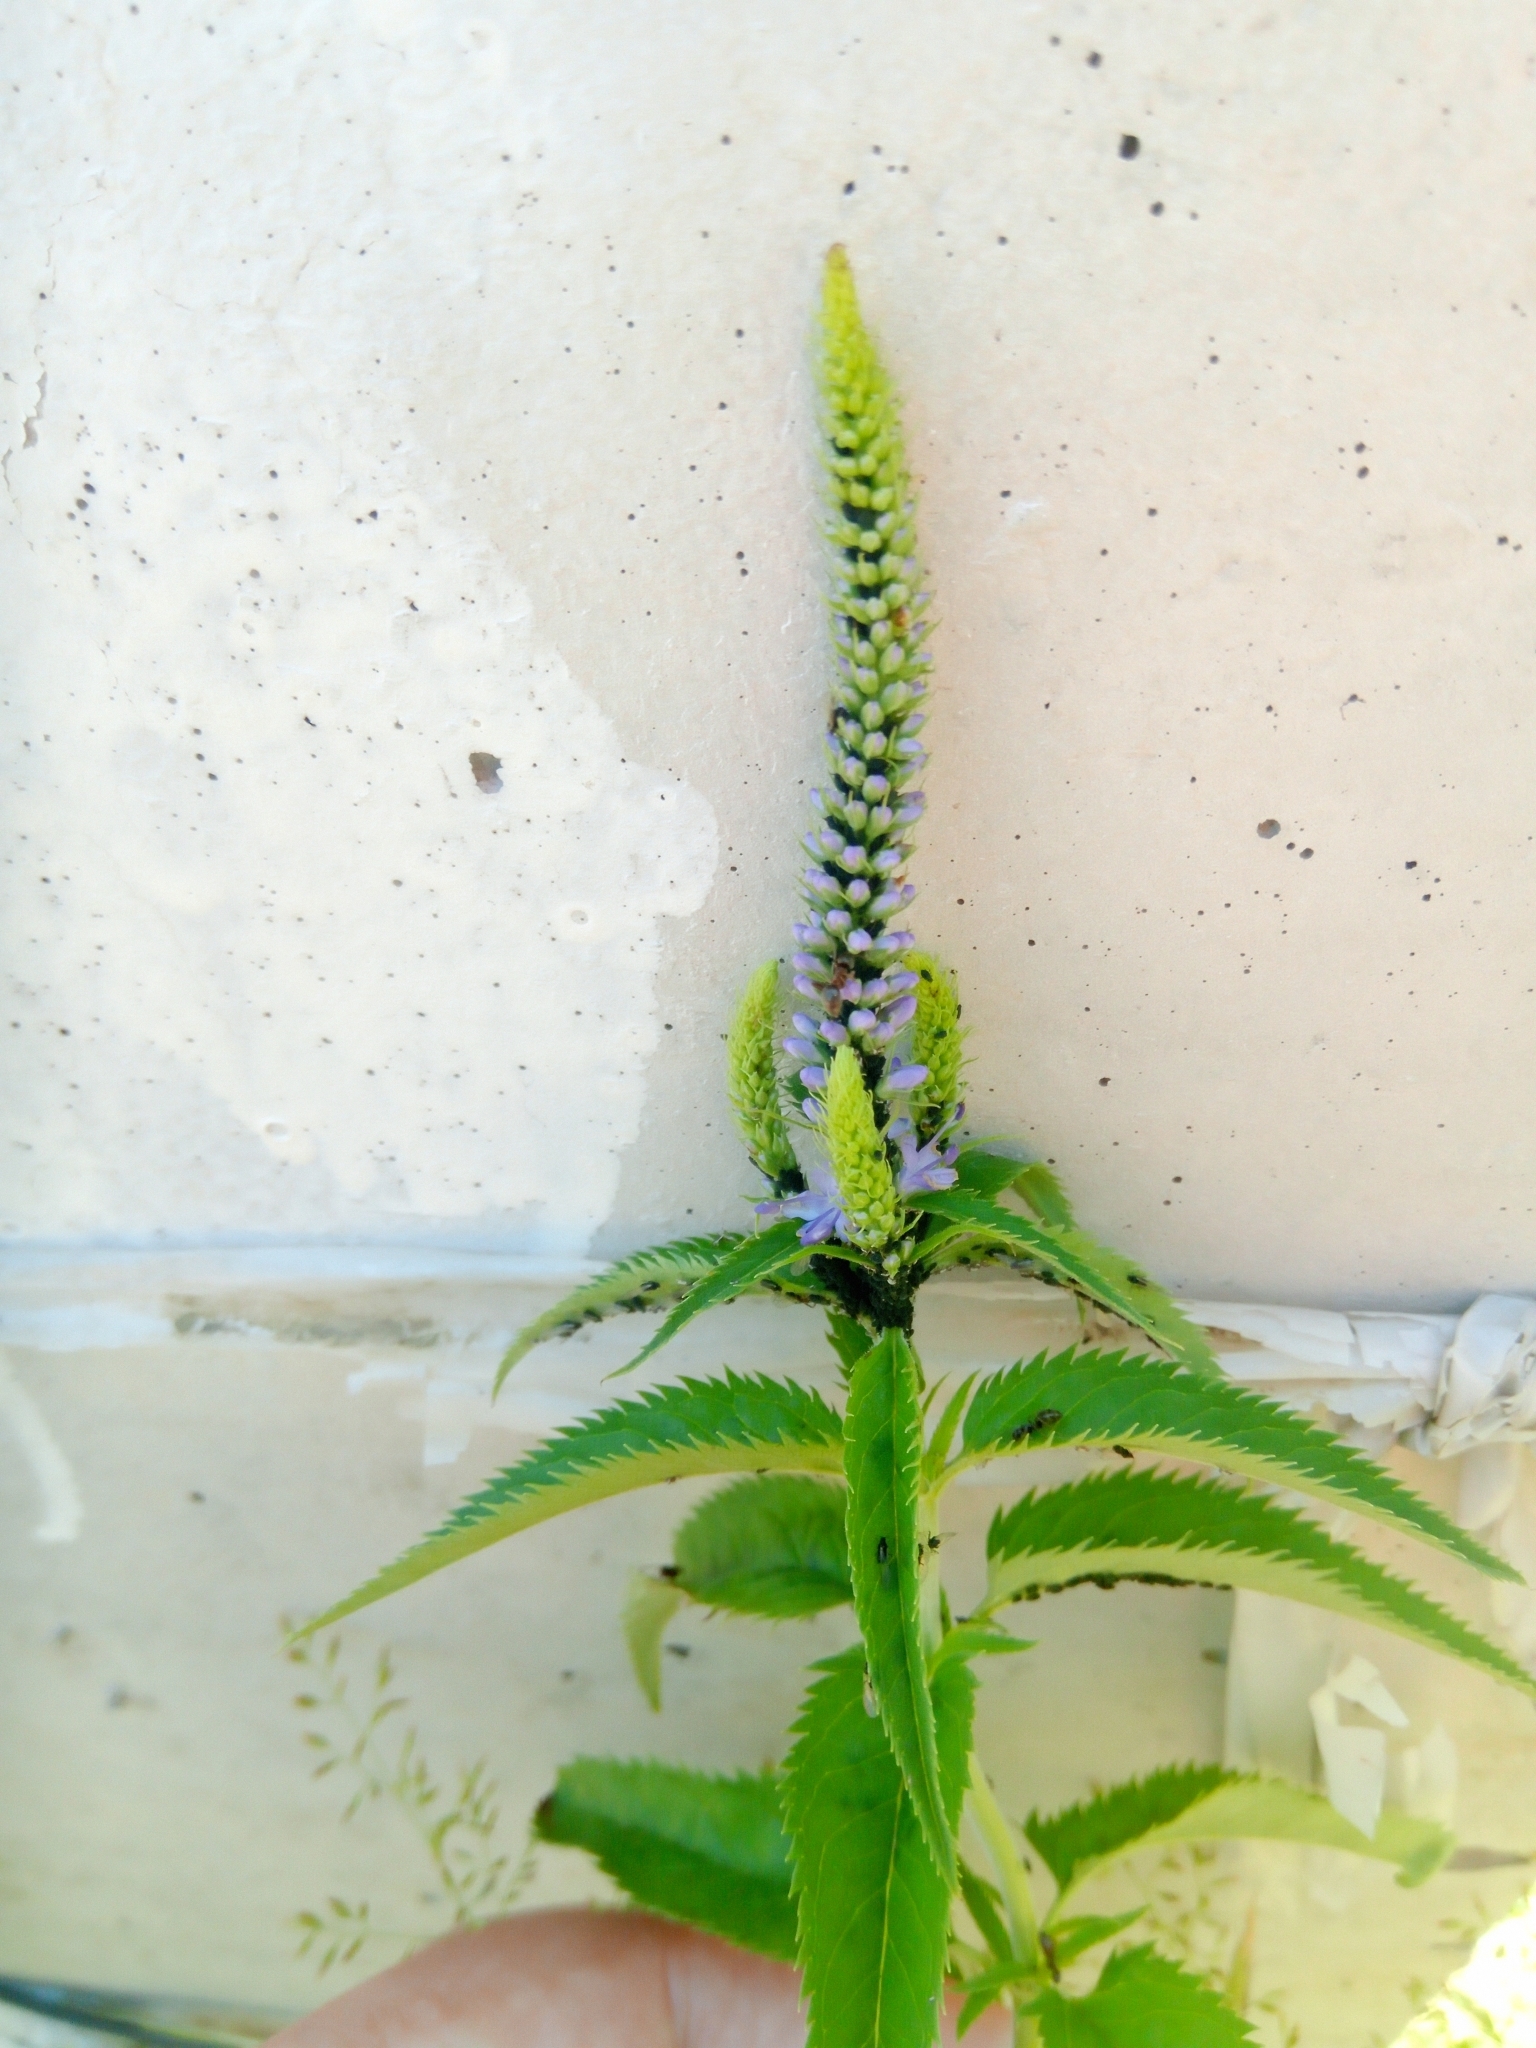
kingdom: Plantae
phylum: Tracheophyta
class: Magnoliopsida
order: Lamiales
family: Plantaginaceae
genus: Veronica
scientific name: Veronica longifolia
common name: Garden speedwell
